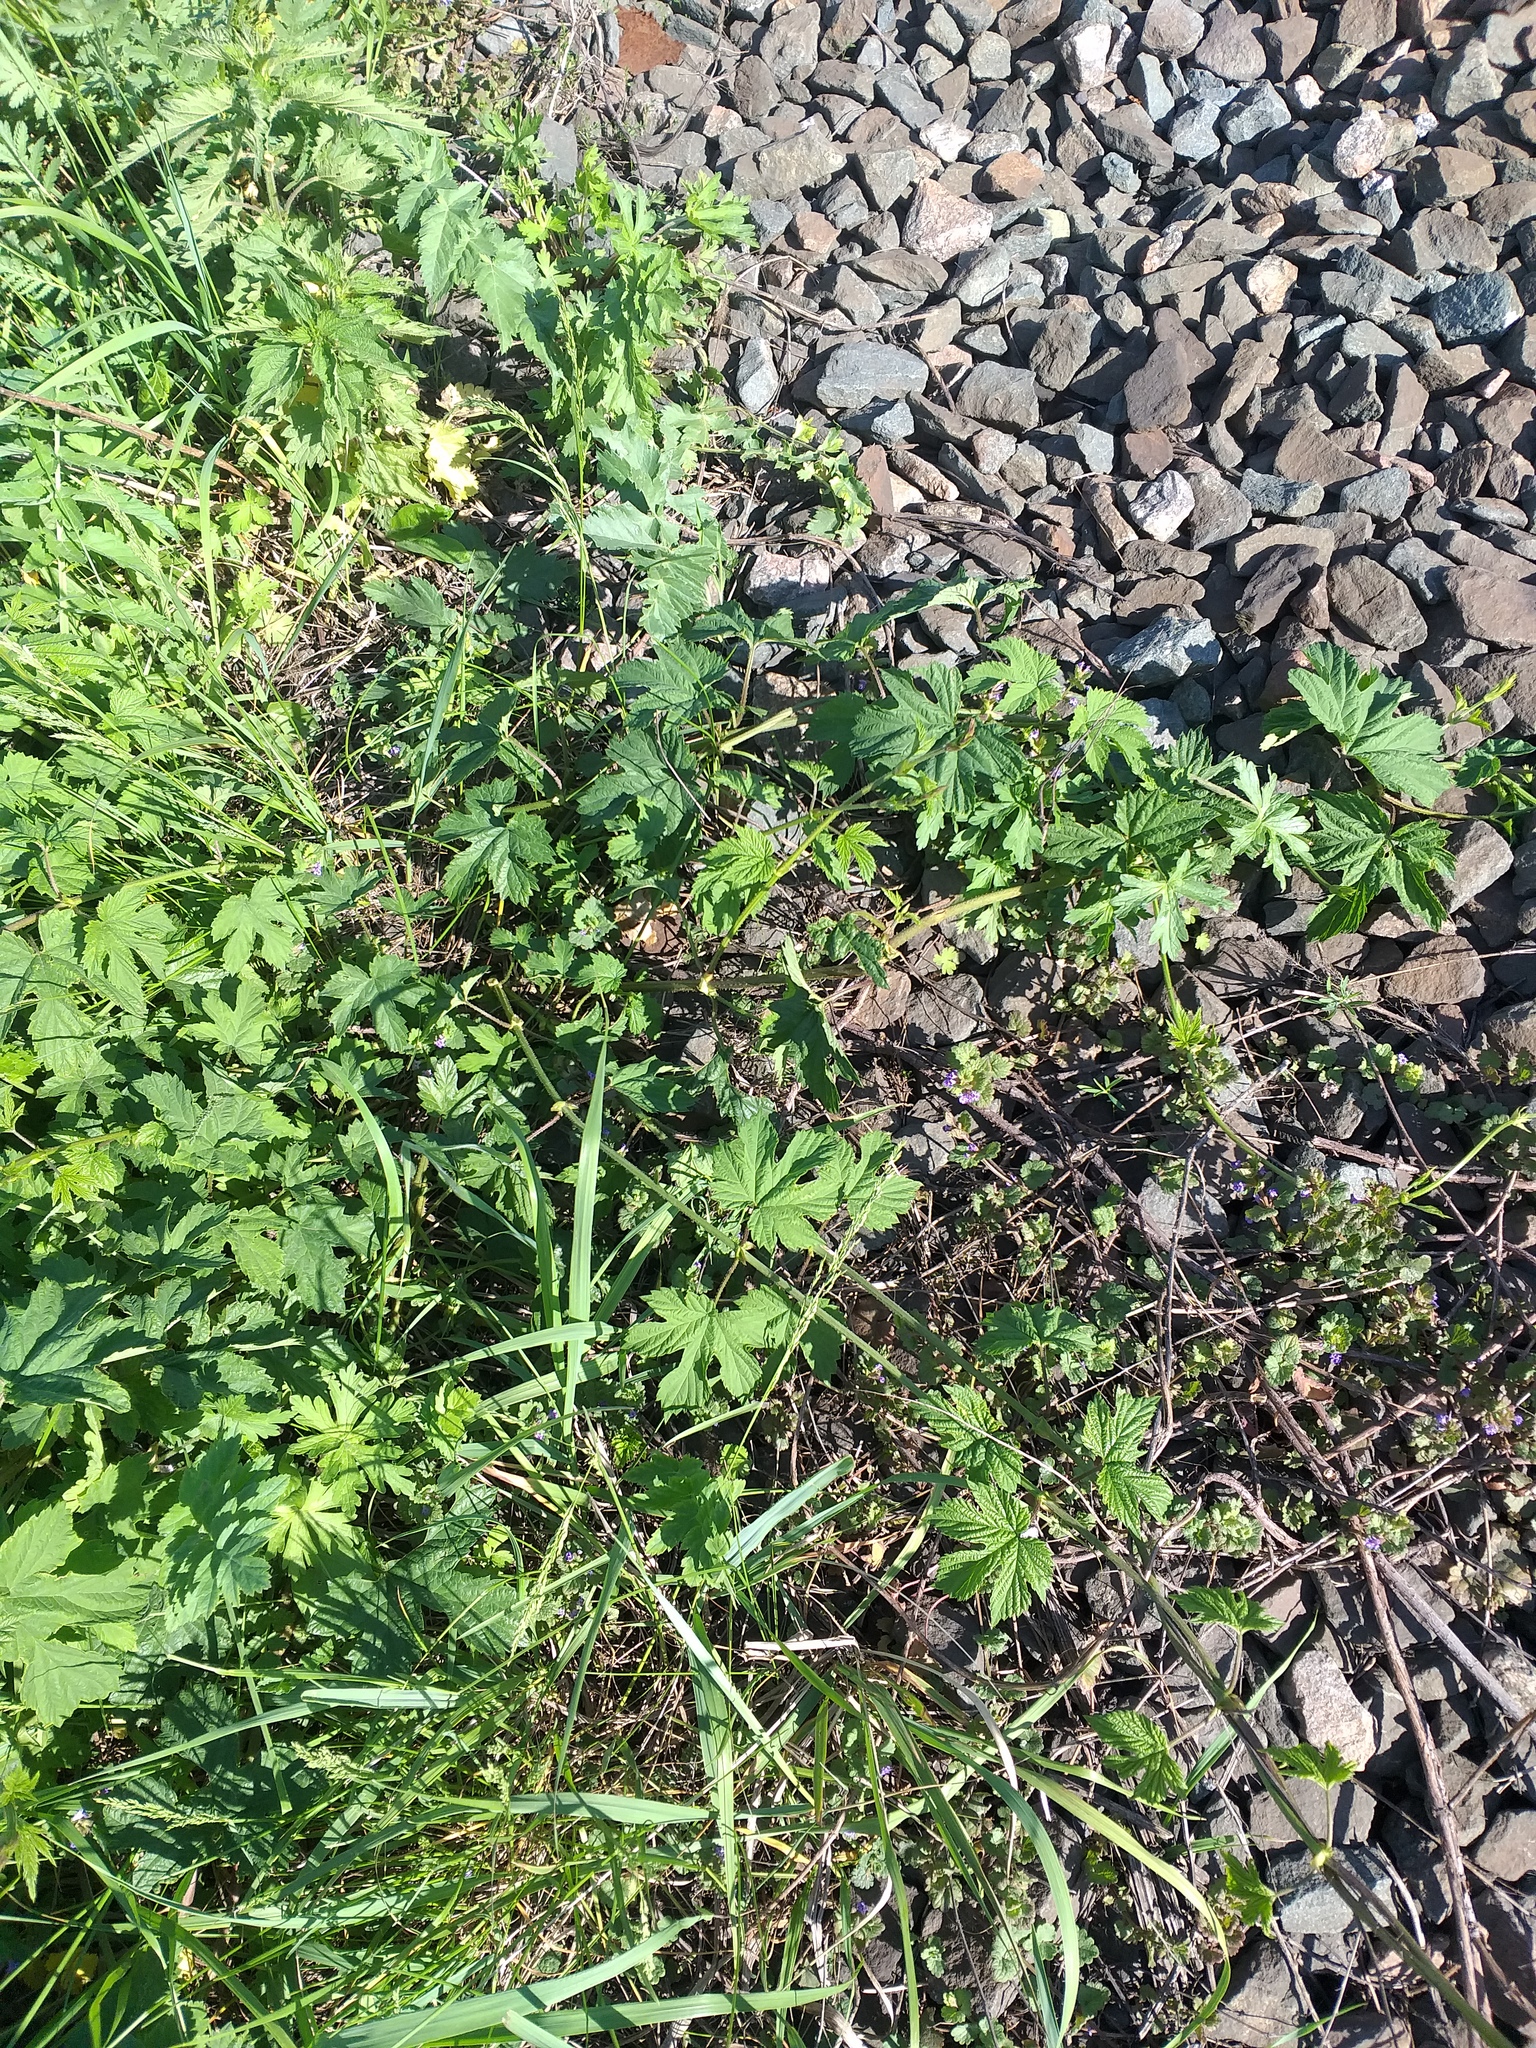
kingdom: Plantae
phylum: Tracheophyta
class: Magnoliopsida
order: Rosales
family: Cannabaceae
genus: Humulus
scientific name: Humulus lupulus
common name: Hop
